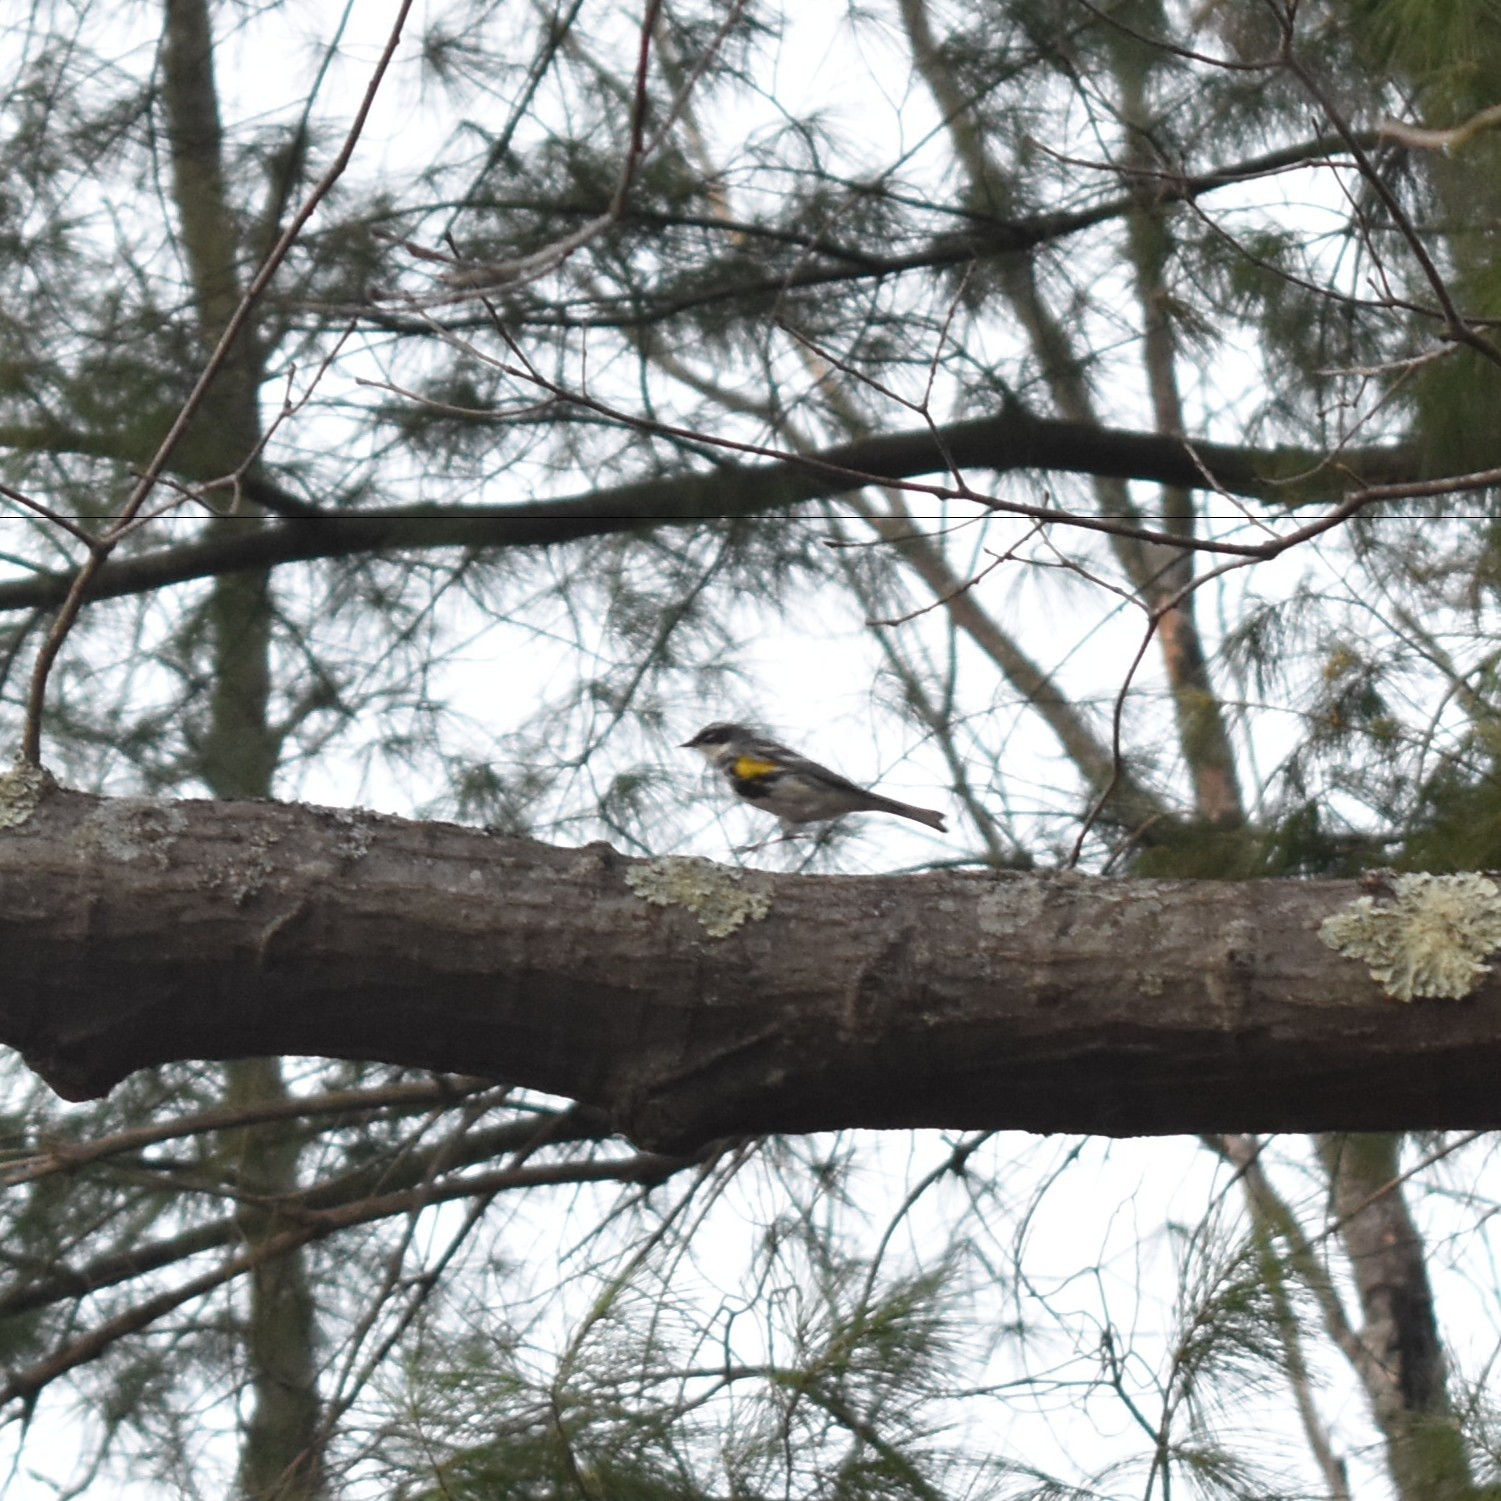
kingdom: Animalia
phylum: Chordata
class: Aves
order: Passeriformes
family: Parulidae
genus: Setophaga
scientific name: Setophaga coronata
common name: Myrtle warbler
